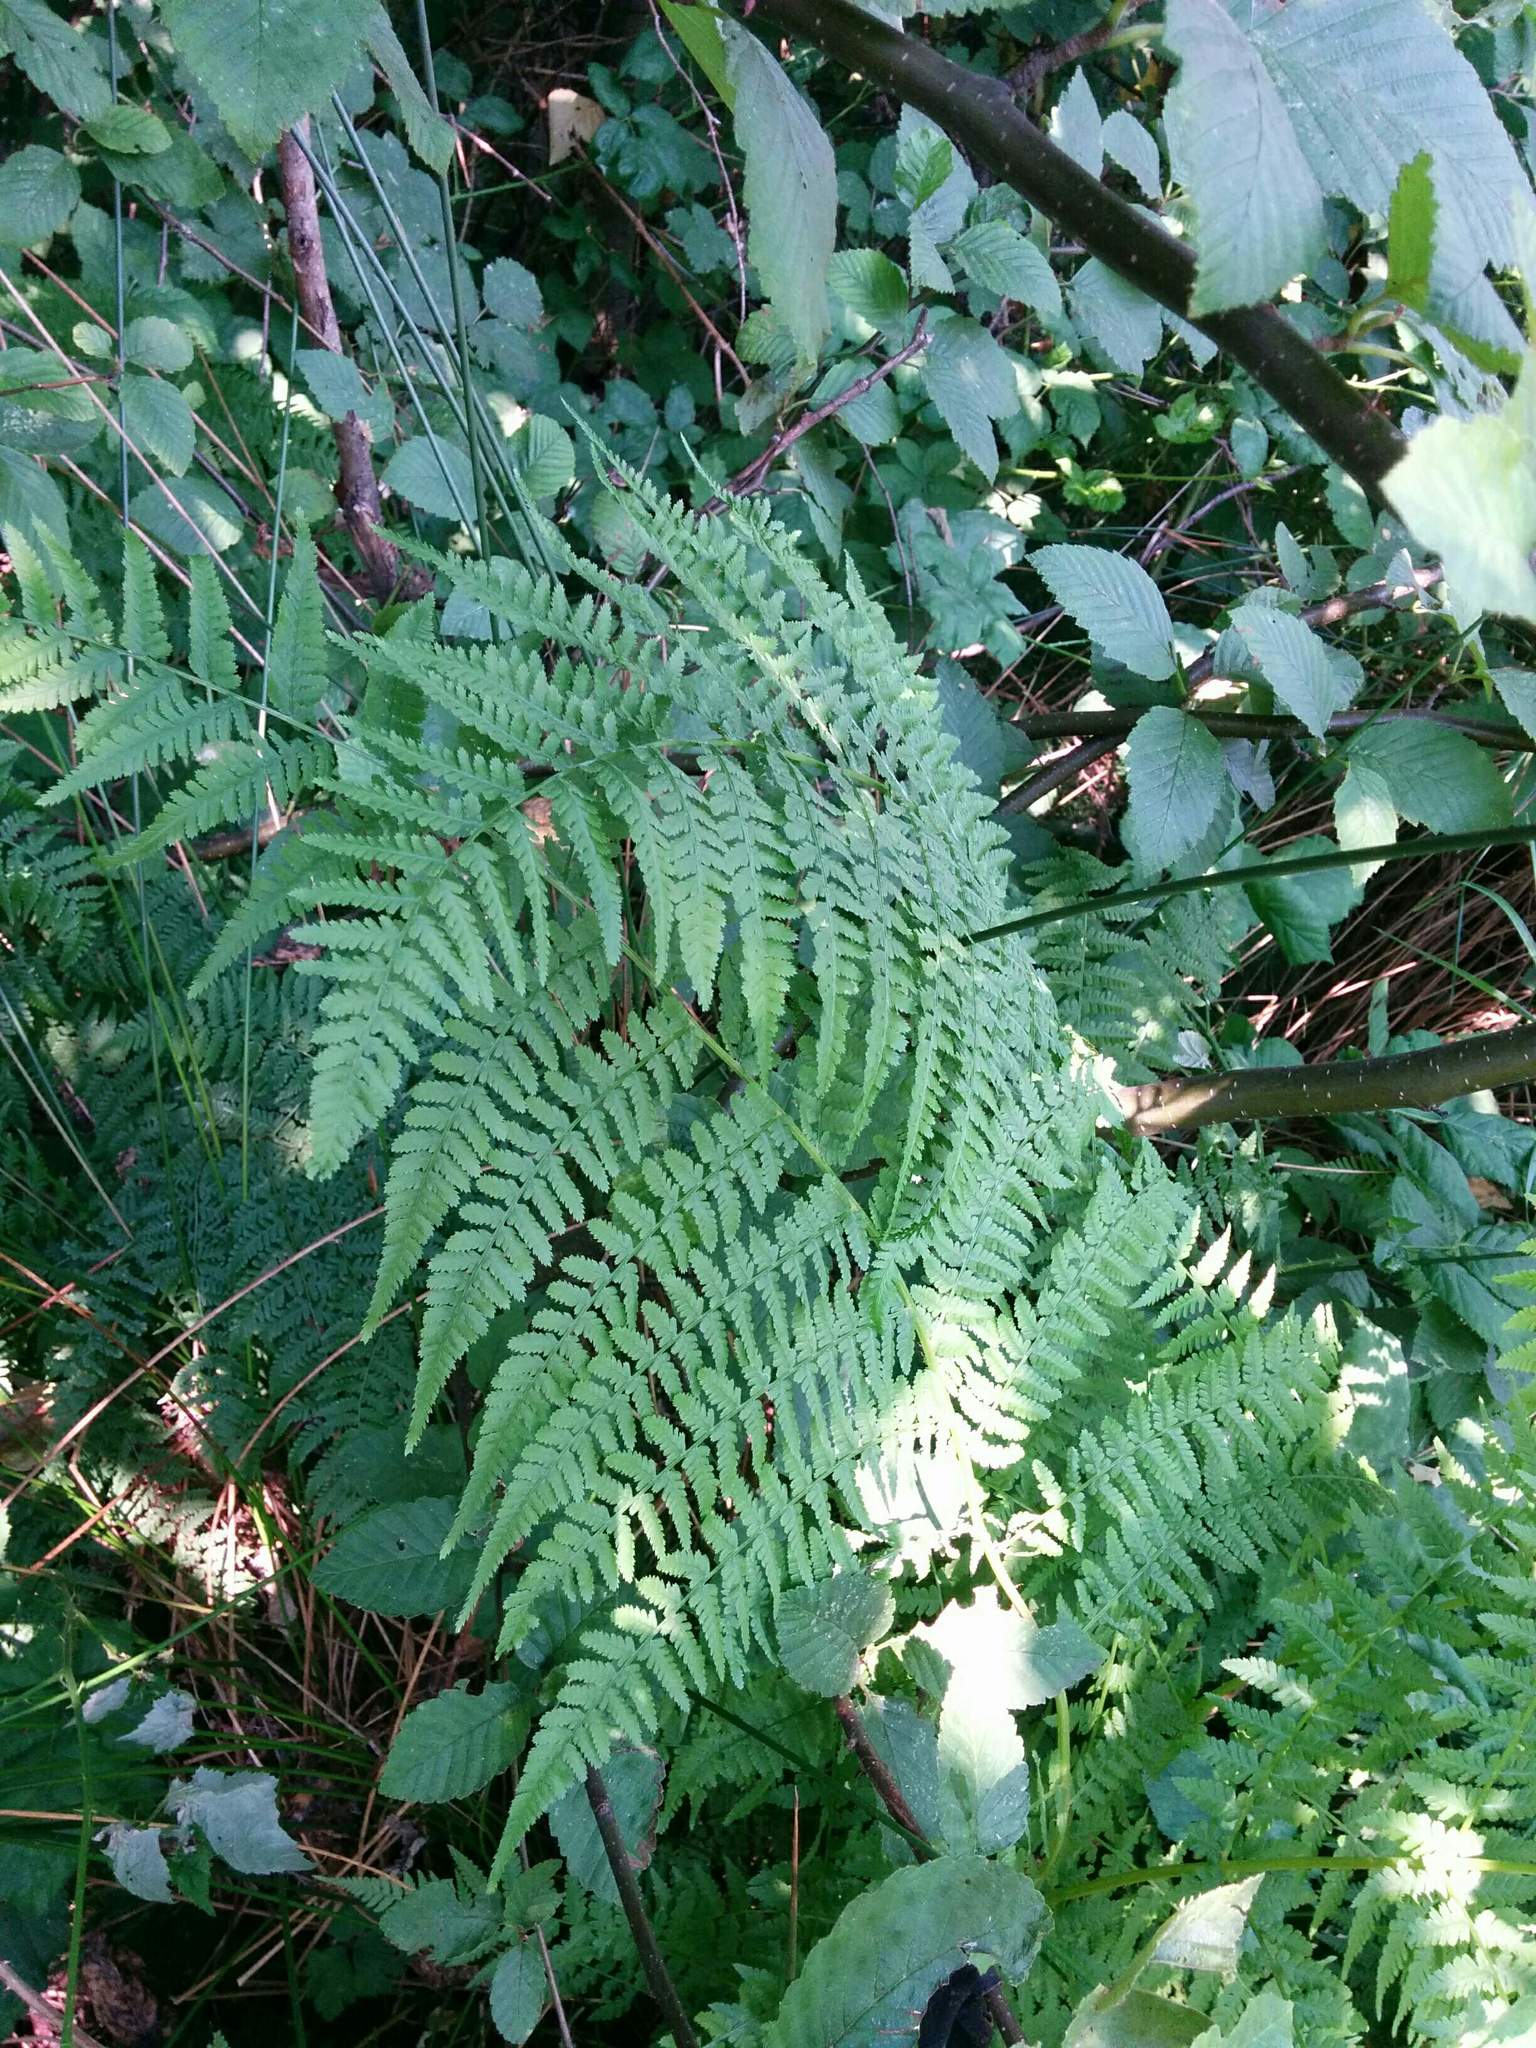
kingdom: Plantae
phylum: Tracheophyta
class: Polypodiopsida
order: Polypodiales
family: Athyriaceae
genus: Athyrium
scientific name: Athyrium filix-femina
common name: Lady fern
